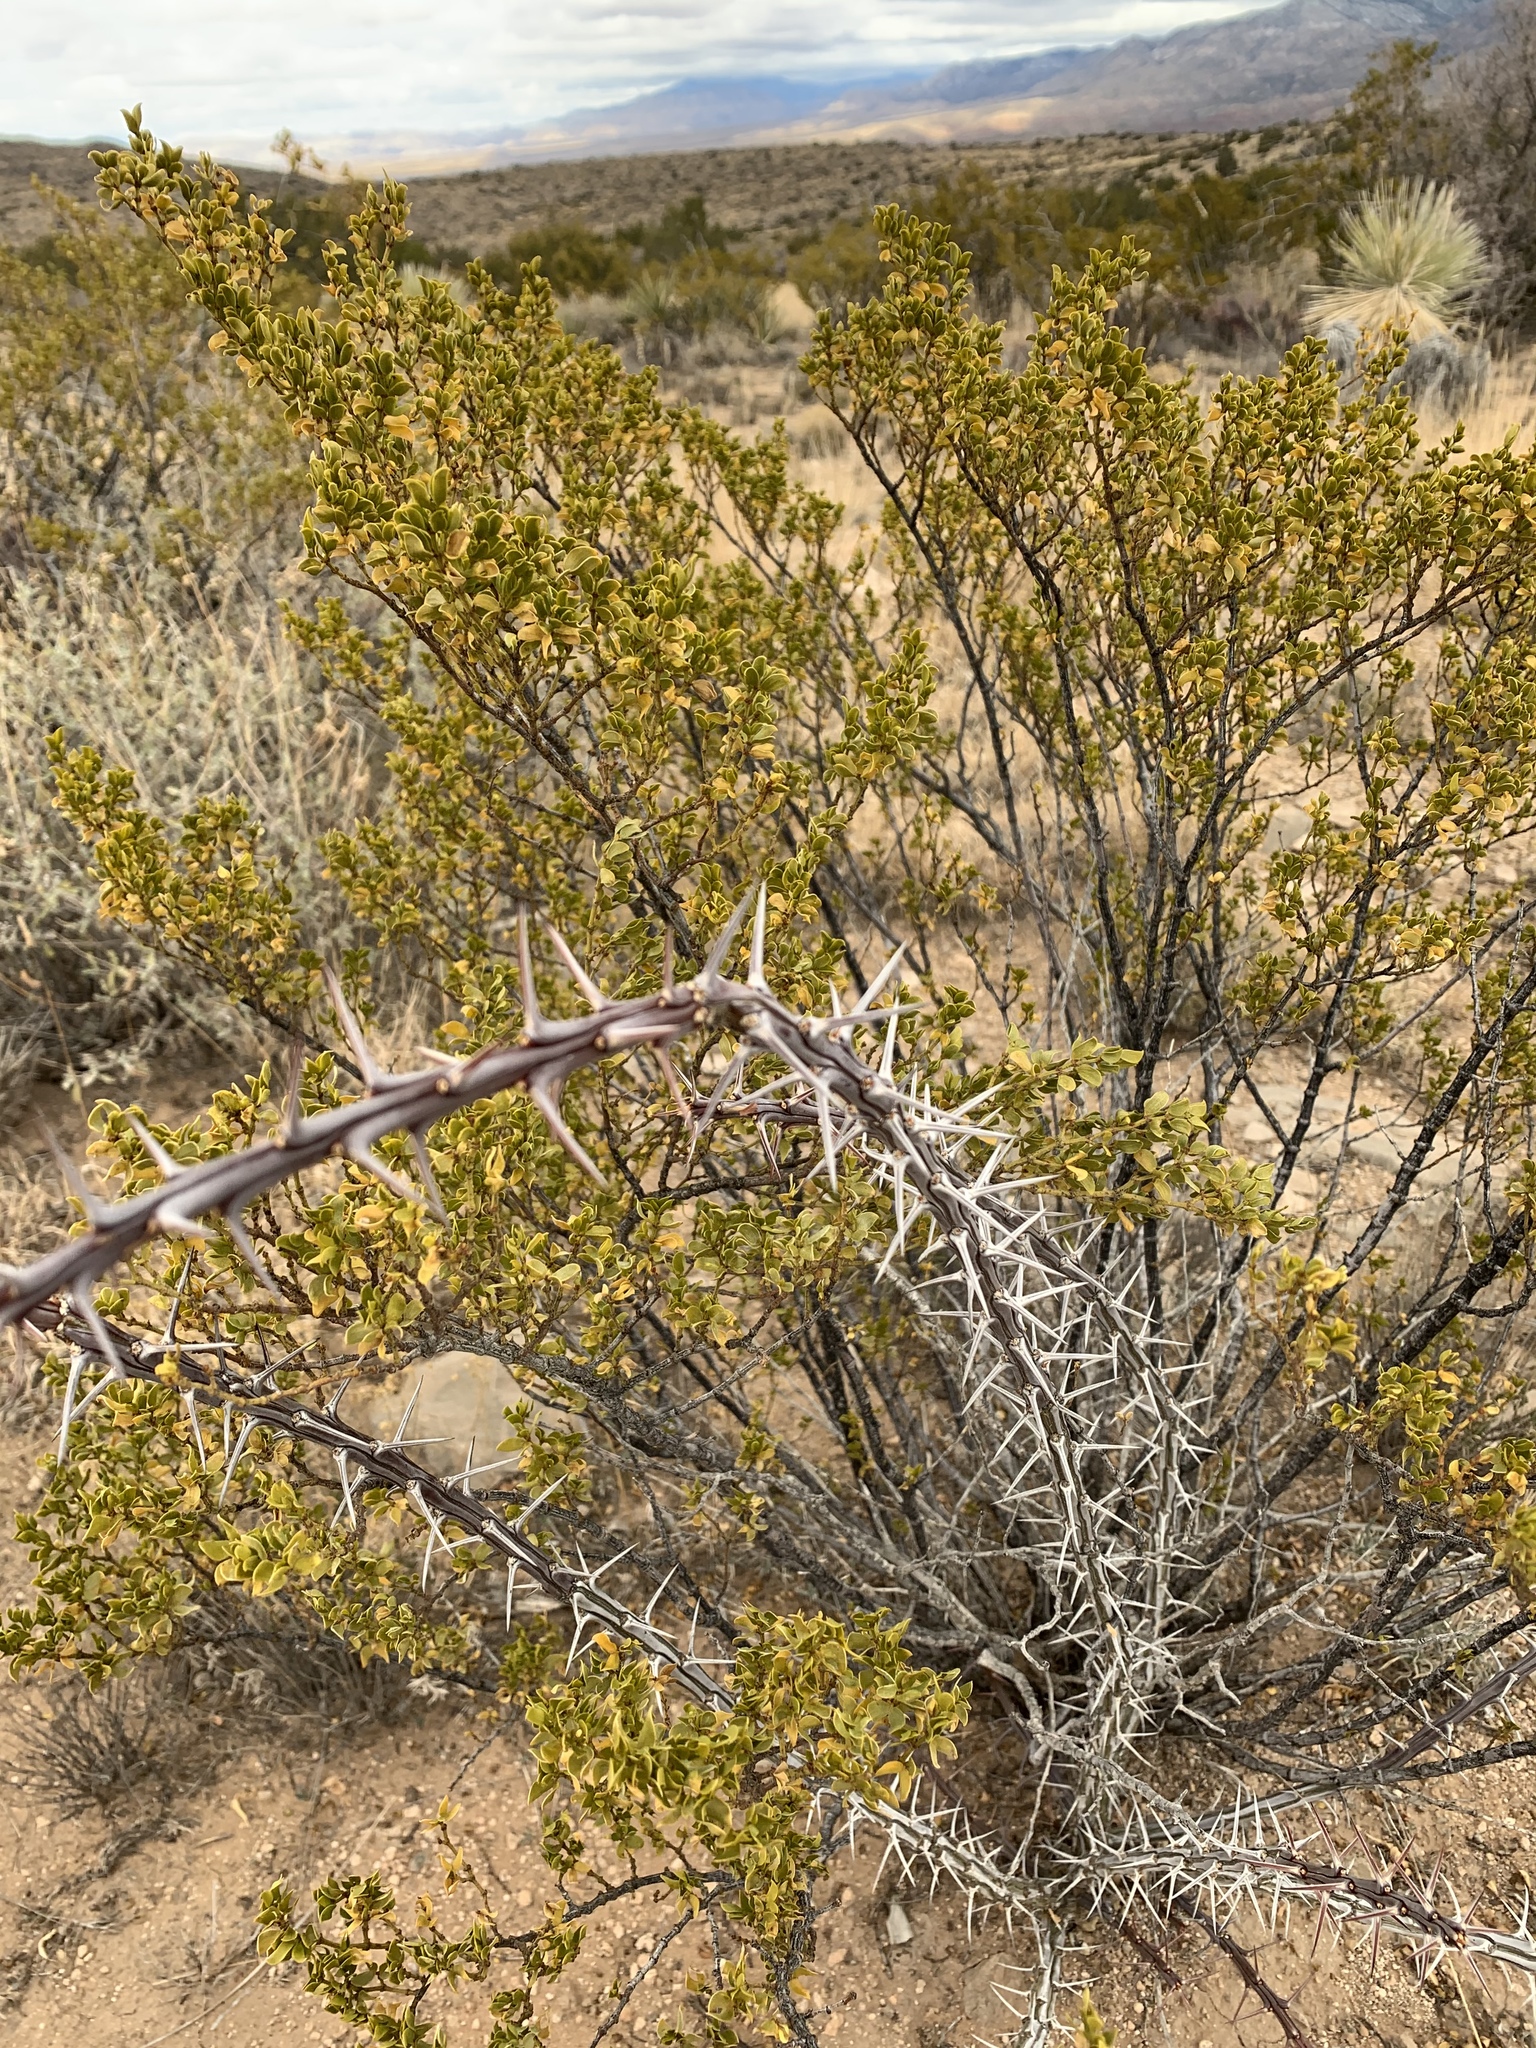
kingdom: Plantae
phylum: Tracheophyta
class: Magnoliopsida
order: Ericales
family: Fouquieriaceae
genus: Fouquieria
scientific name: Fouquieria splendens
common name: Vine-cactus
